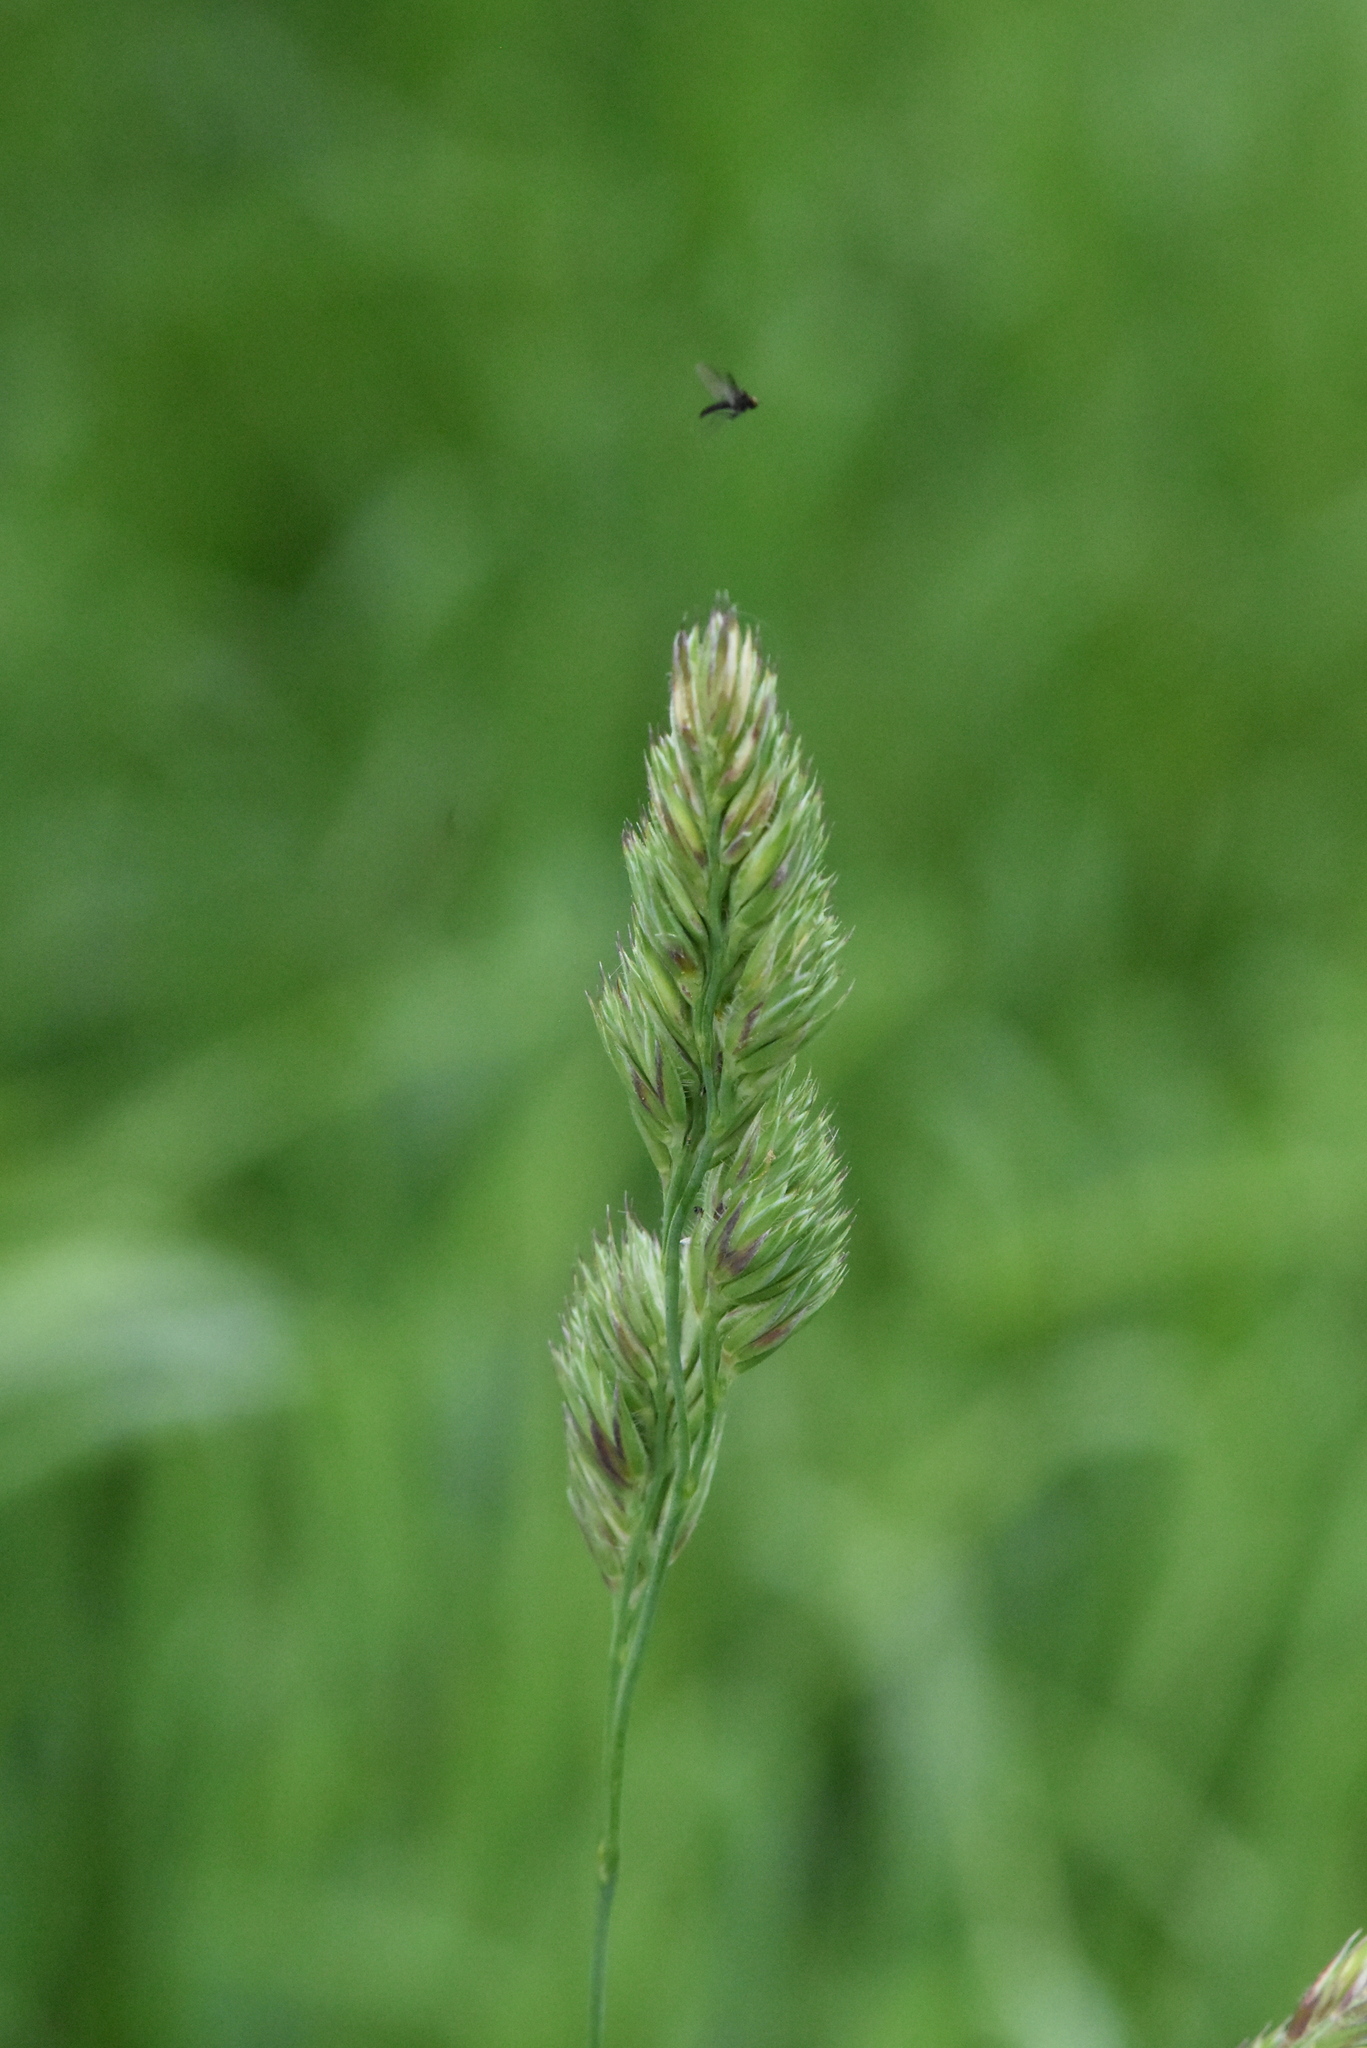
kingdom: Plantae
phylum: Tracheophyta
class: Liliopsida
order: Poales
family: Poaceae
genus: Dactylis
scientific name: Dactylis glomerata
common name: Orchardgrass
